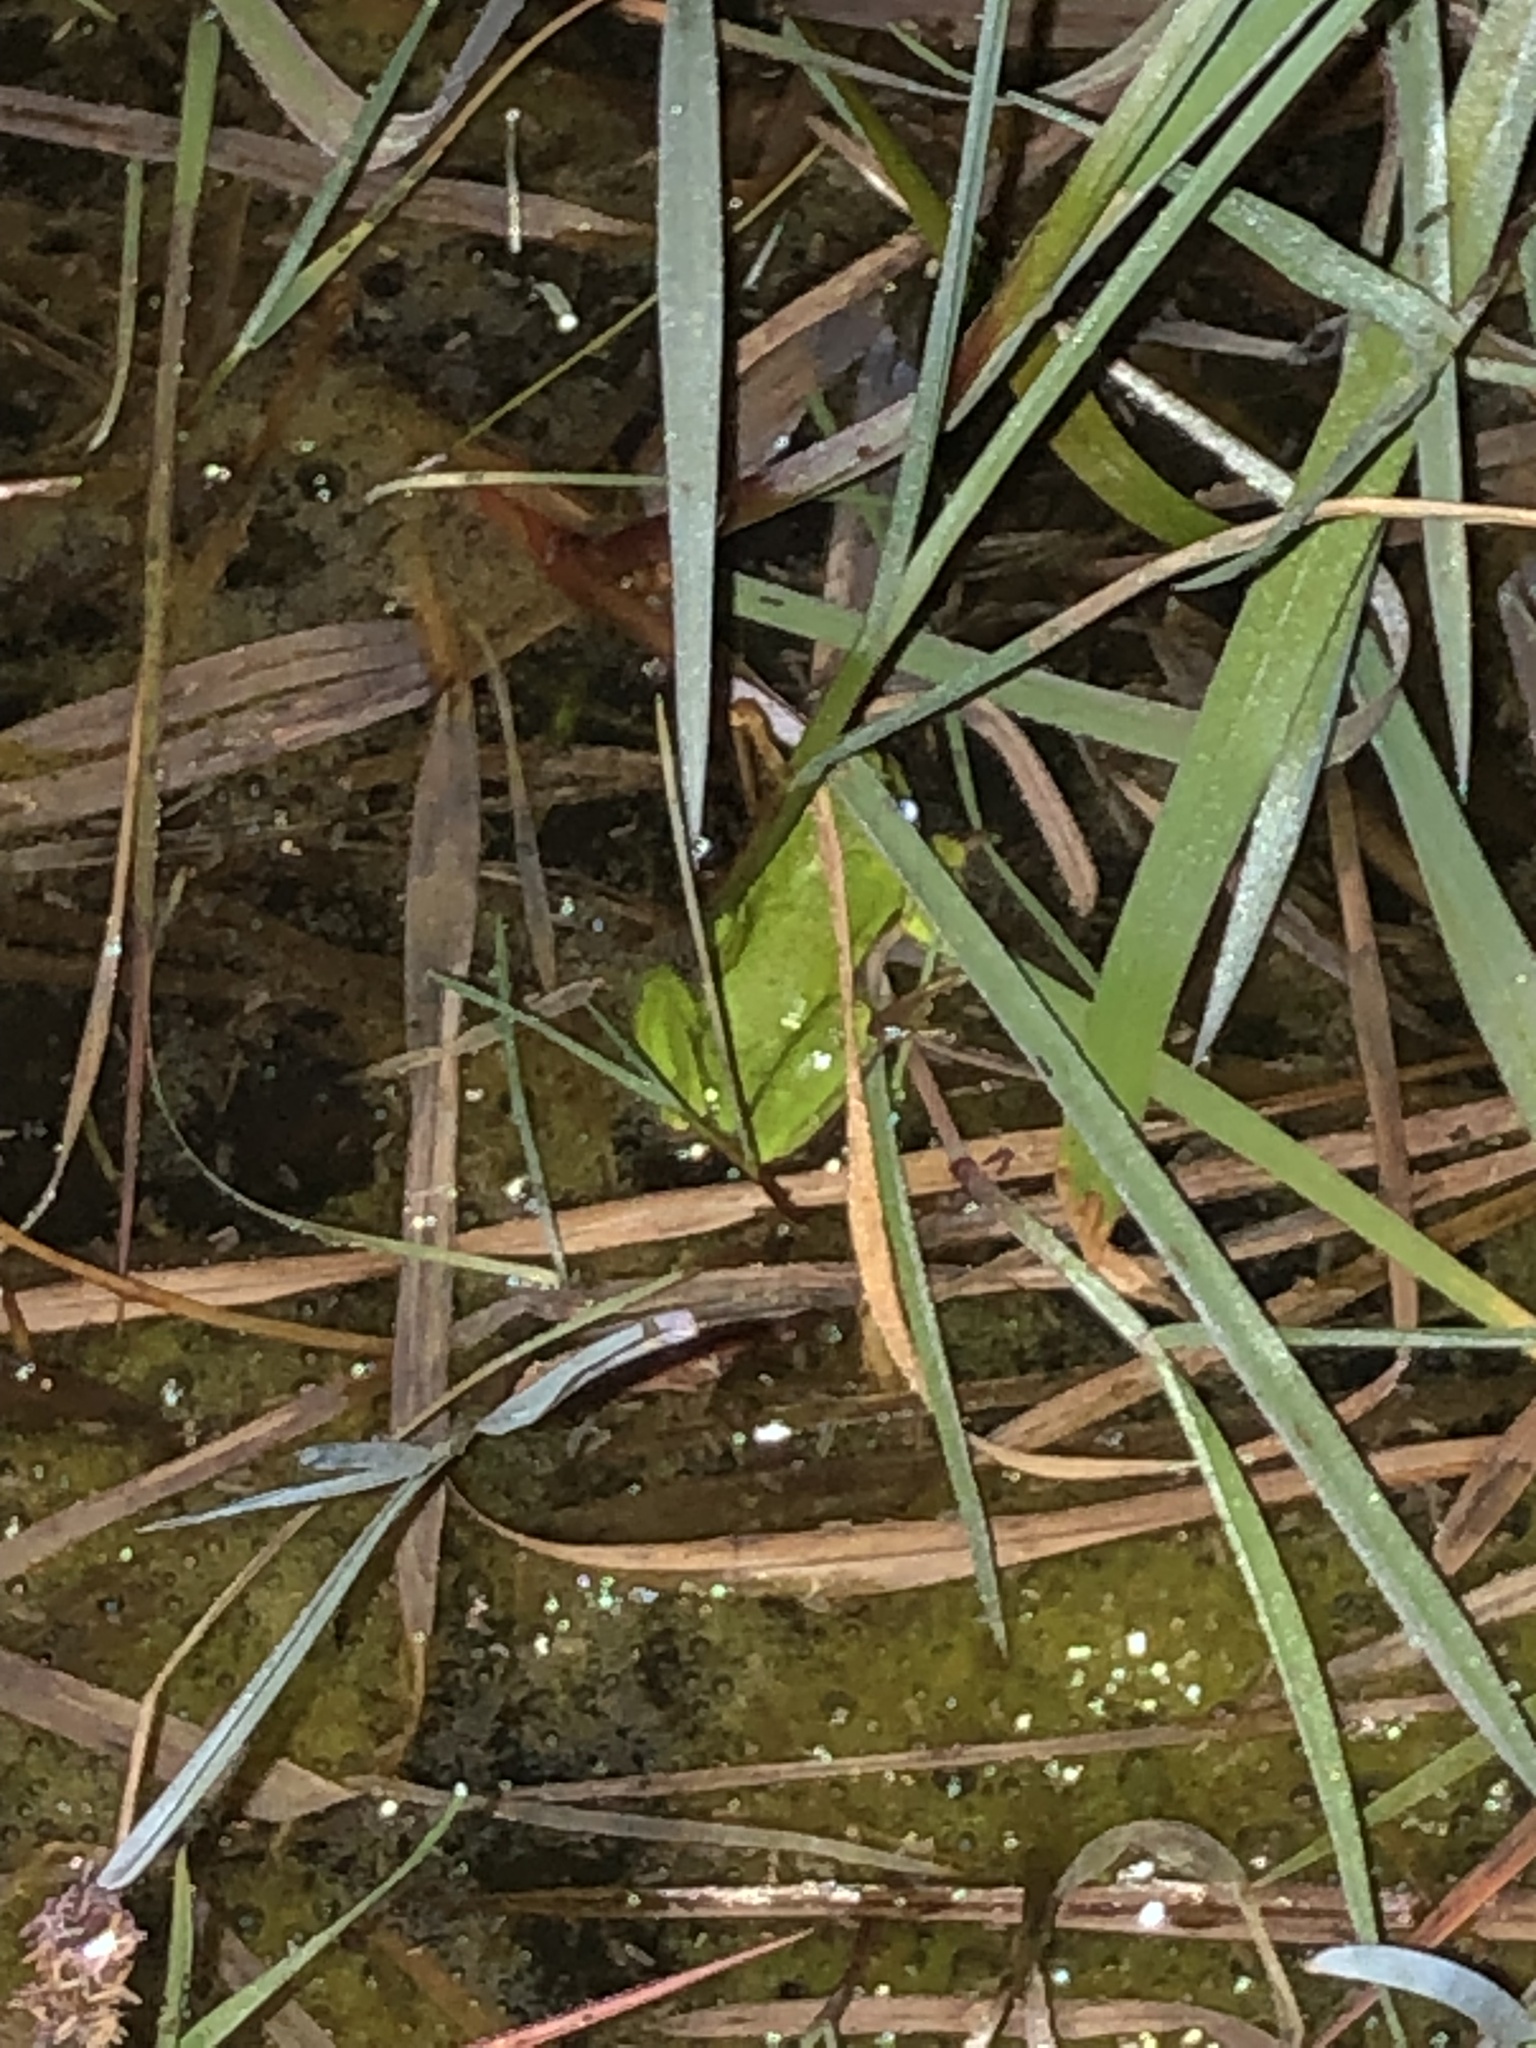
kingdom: Animalia
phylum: Chordata
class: Amphibia
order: Anura
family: Hylidae
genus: Hyla
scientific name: Hyla arborea
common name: Common tree frog
